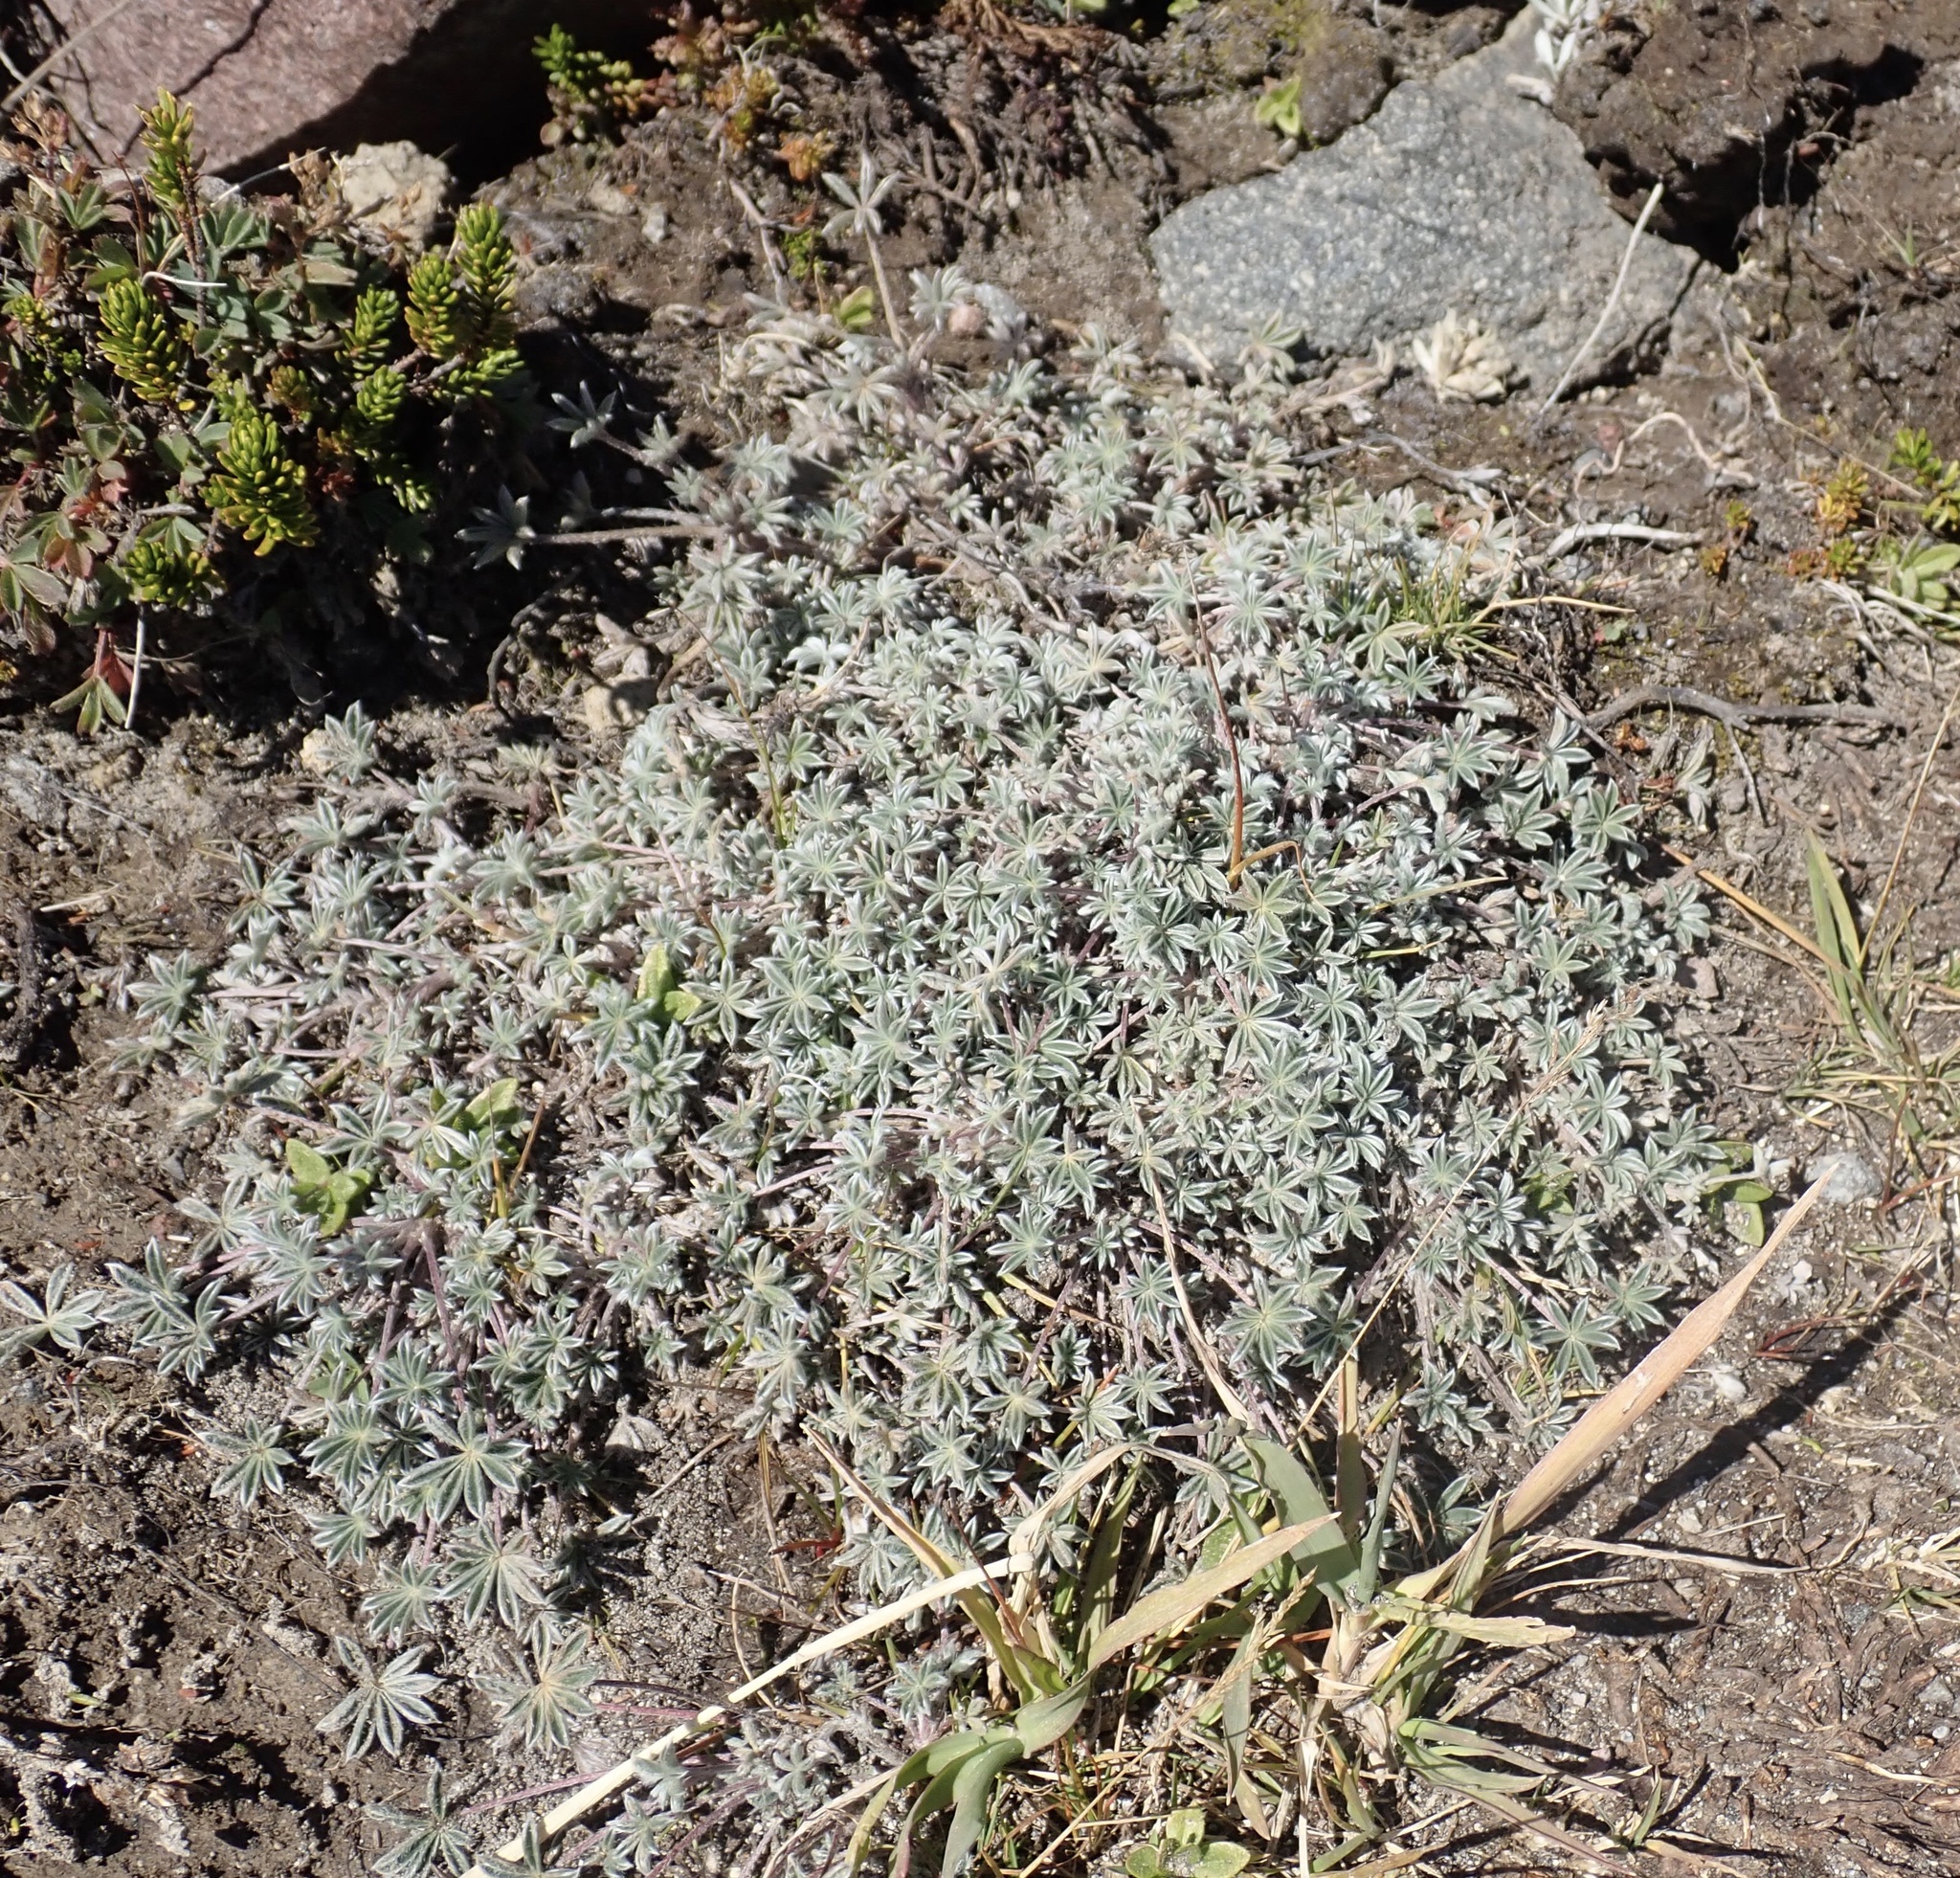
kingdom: Plantae
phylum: Tracheophyta
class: Magnoliopsida
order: Fabales
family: Fabaceae
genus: Lupinus
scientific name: Lupinus sellulus
